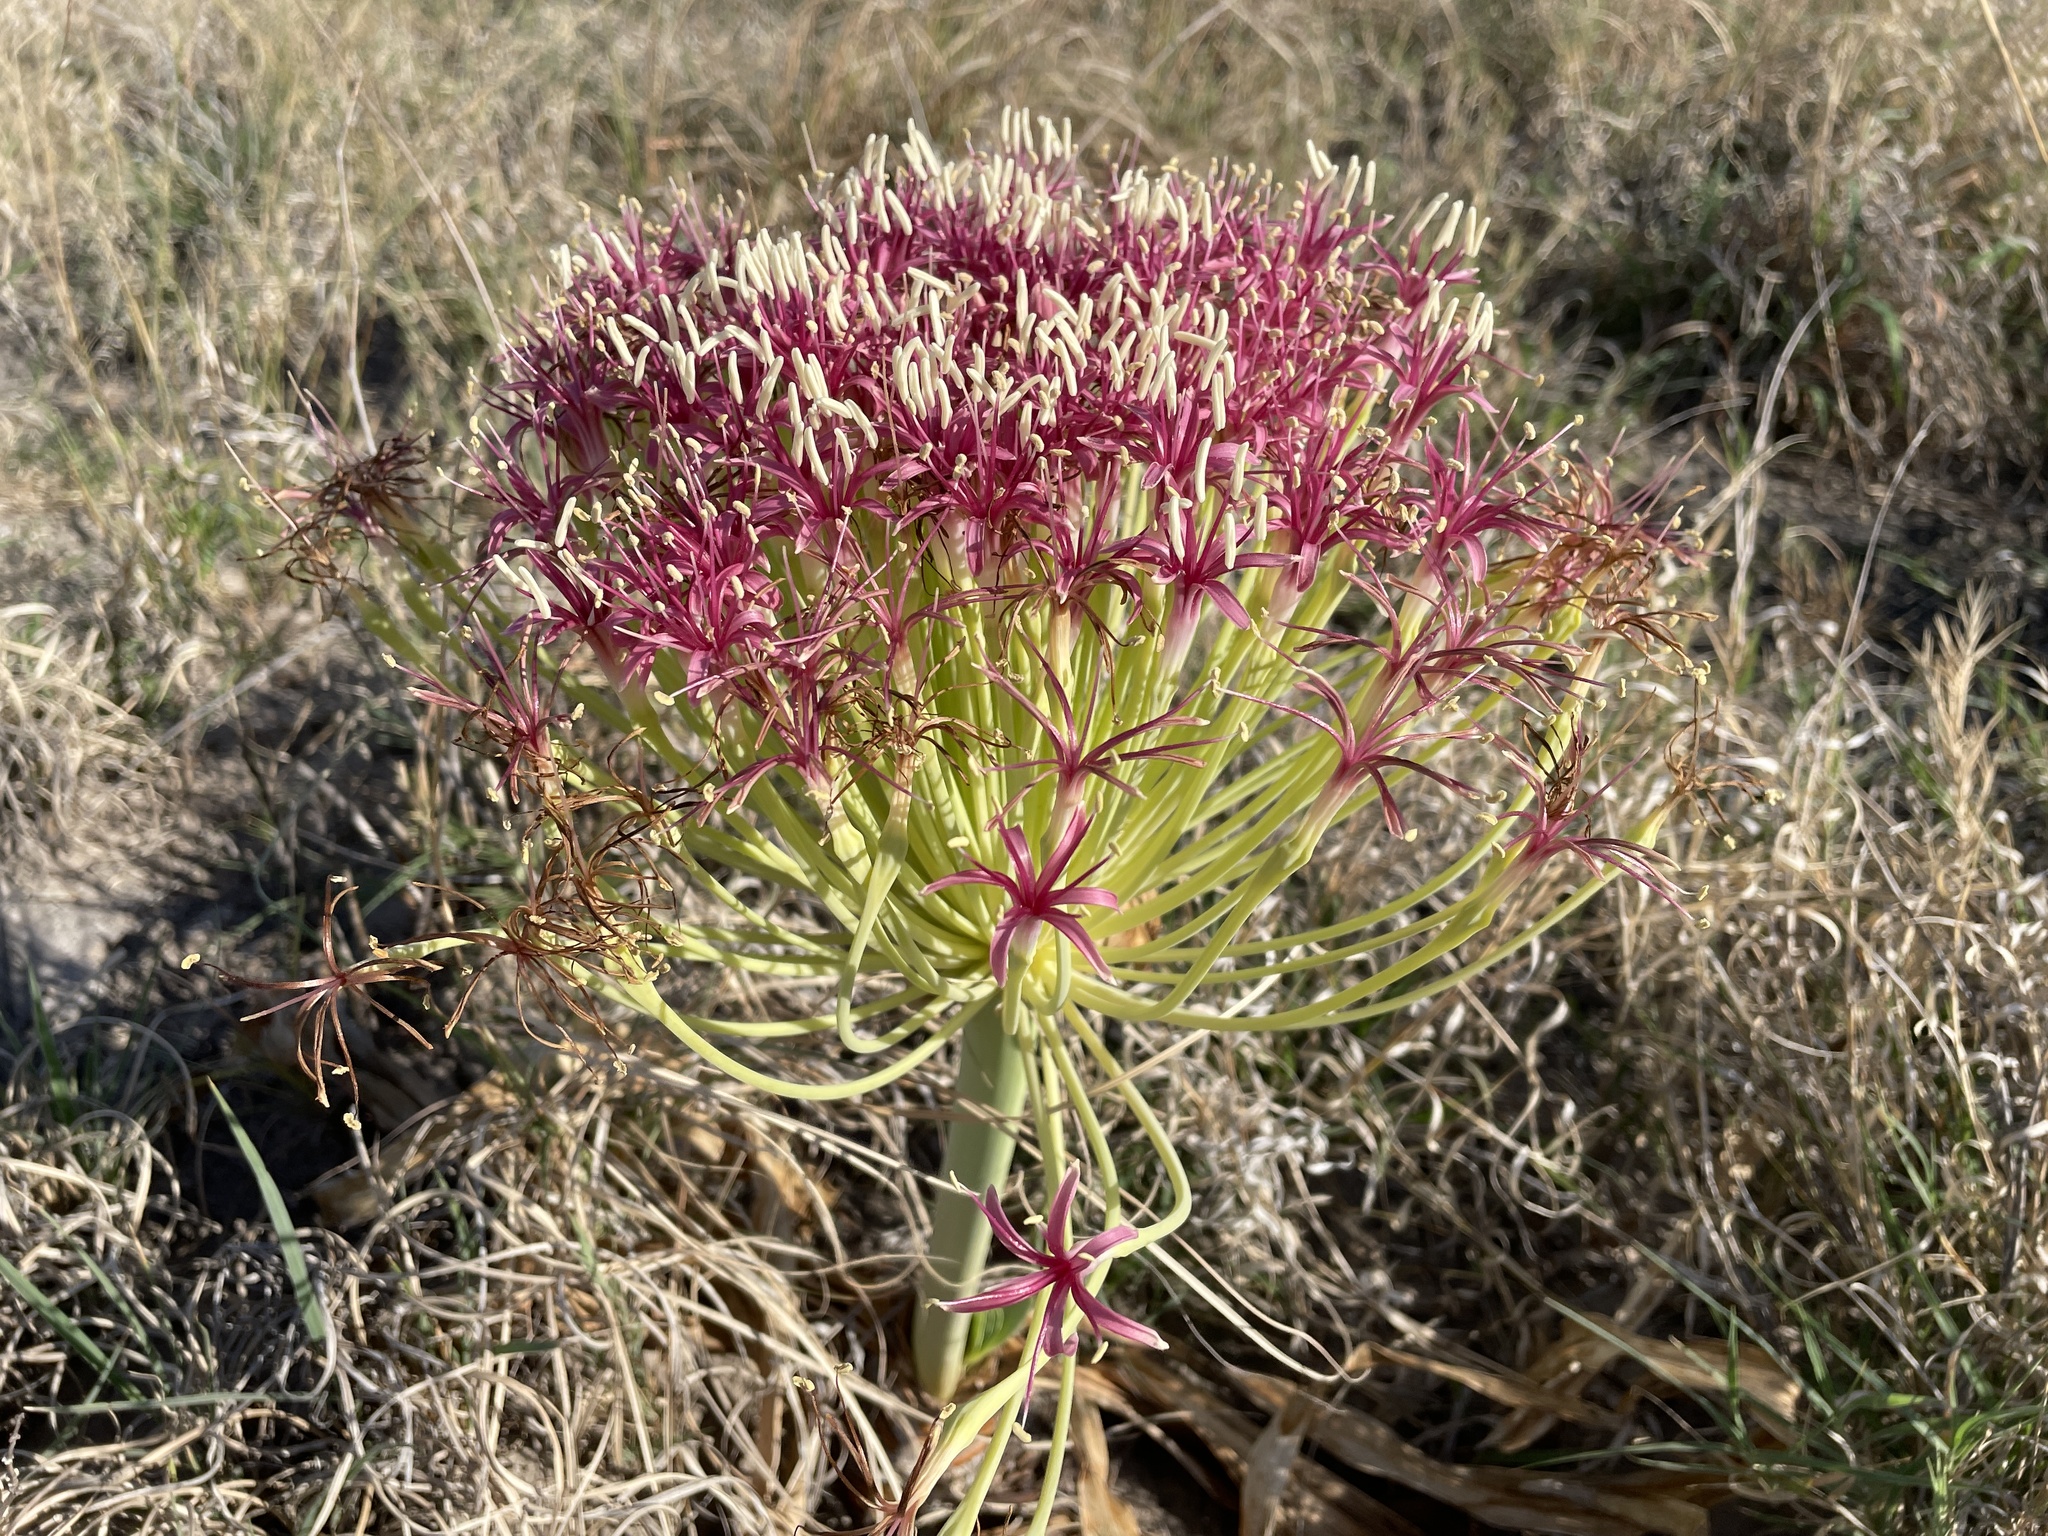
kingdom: Plantae
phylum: Tracheophyta
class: Liliopsida
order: Asparagales
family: Amaryllidaceae
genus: Boophone
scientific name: Boophone disticha
